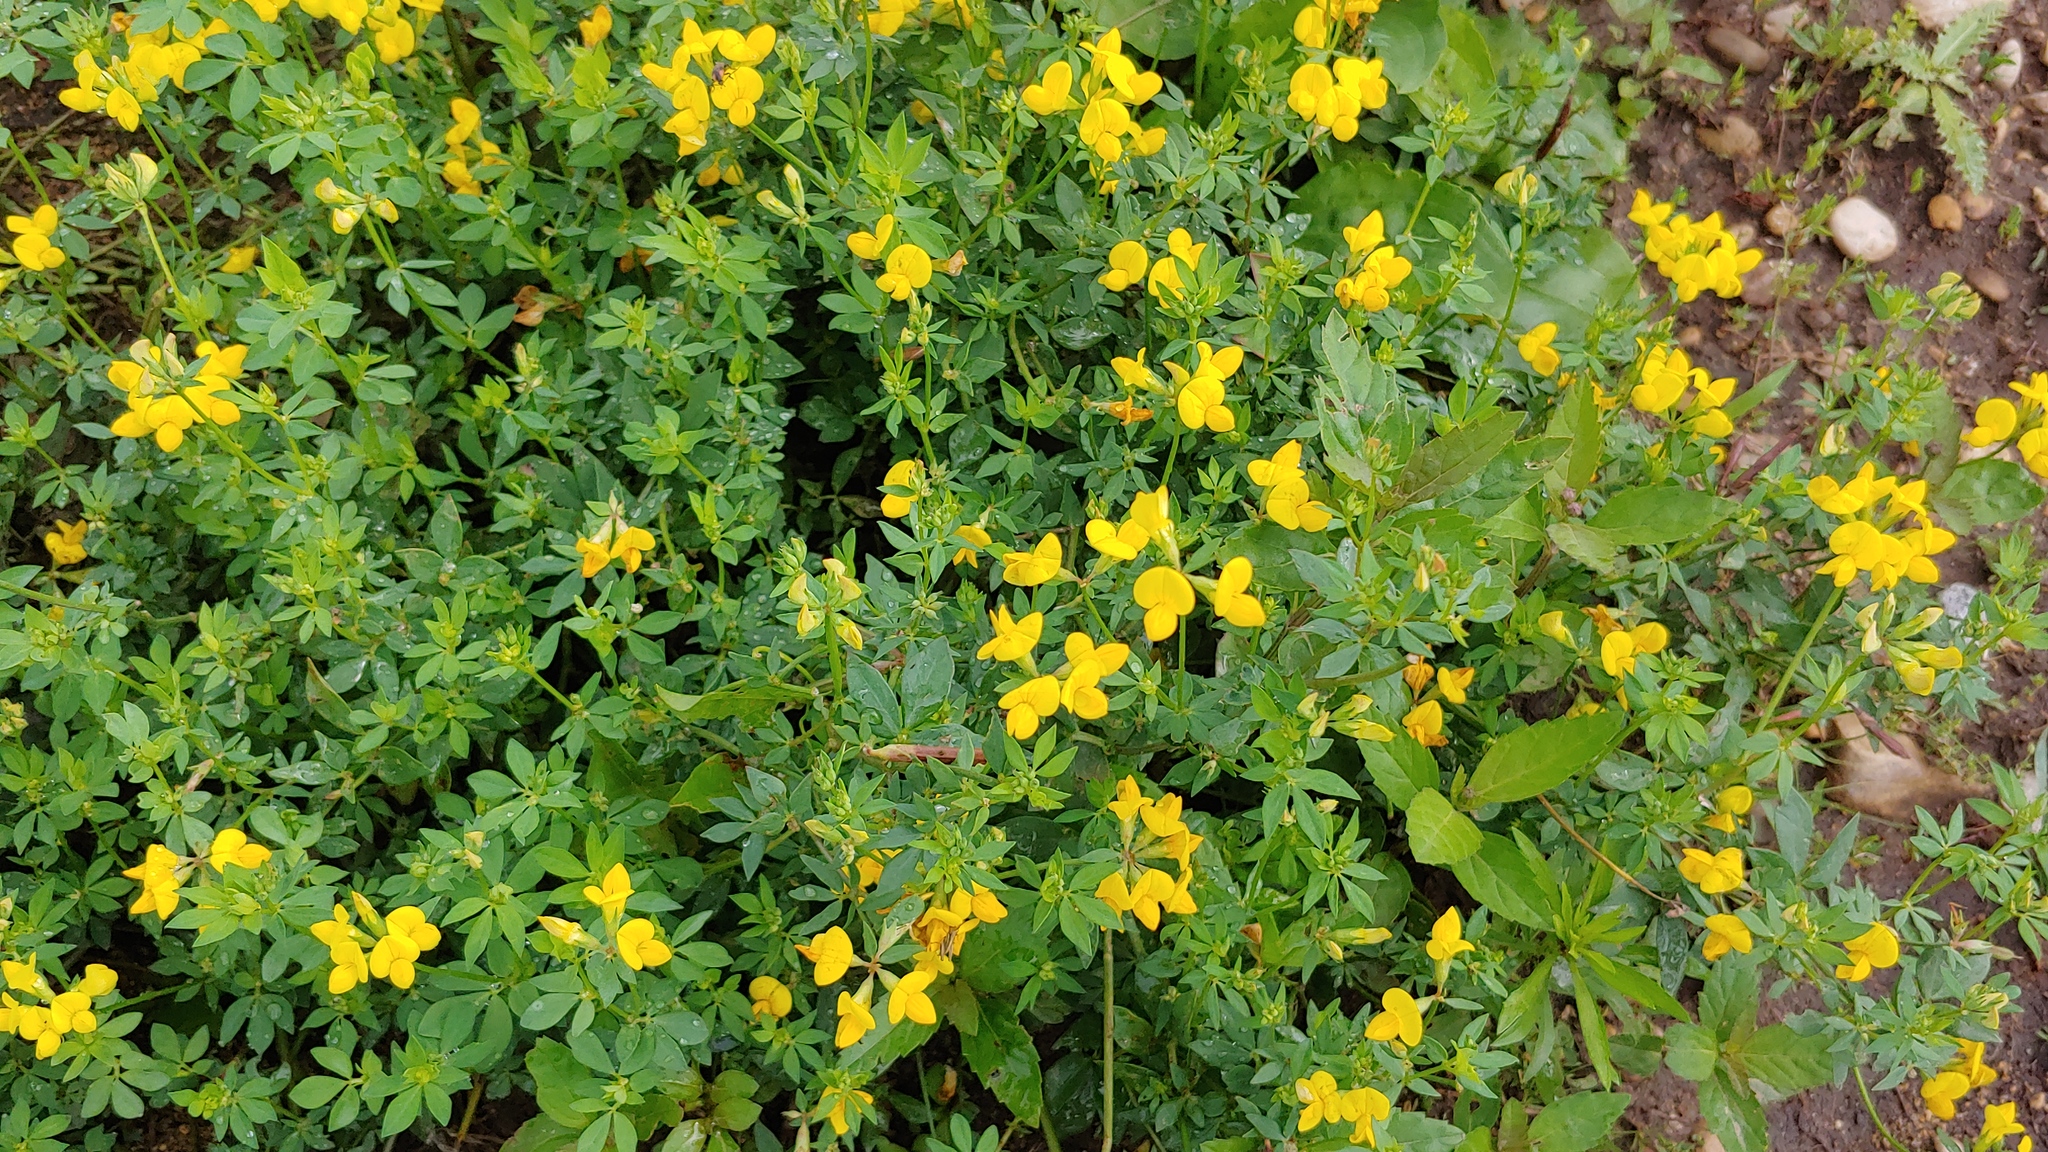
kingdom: Plantae
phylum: Tracheophyta
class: Magnoliopsida
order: Fabales
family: Fabaceae
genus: Lotus
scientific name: Lotus corniculatus
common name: Common bird's-foot-trefoil
